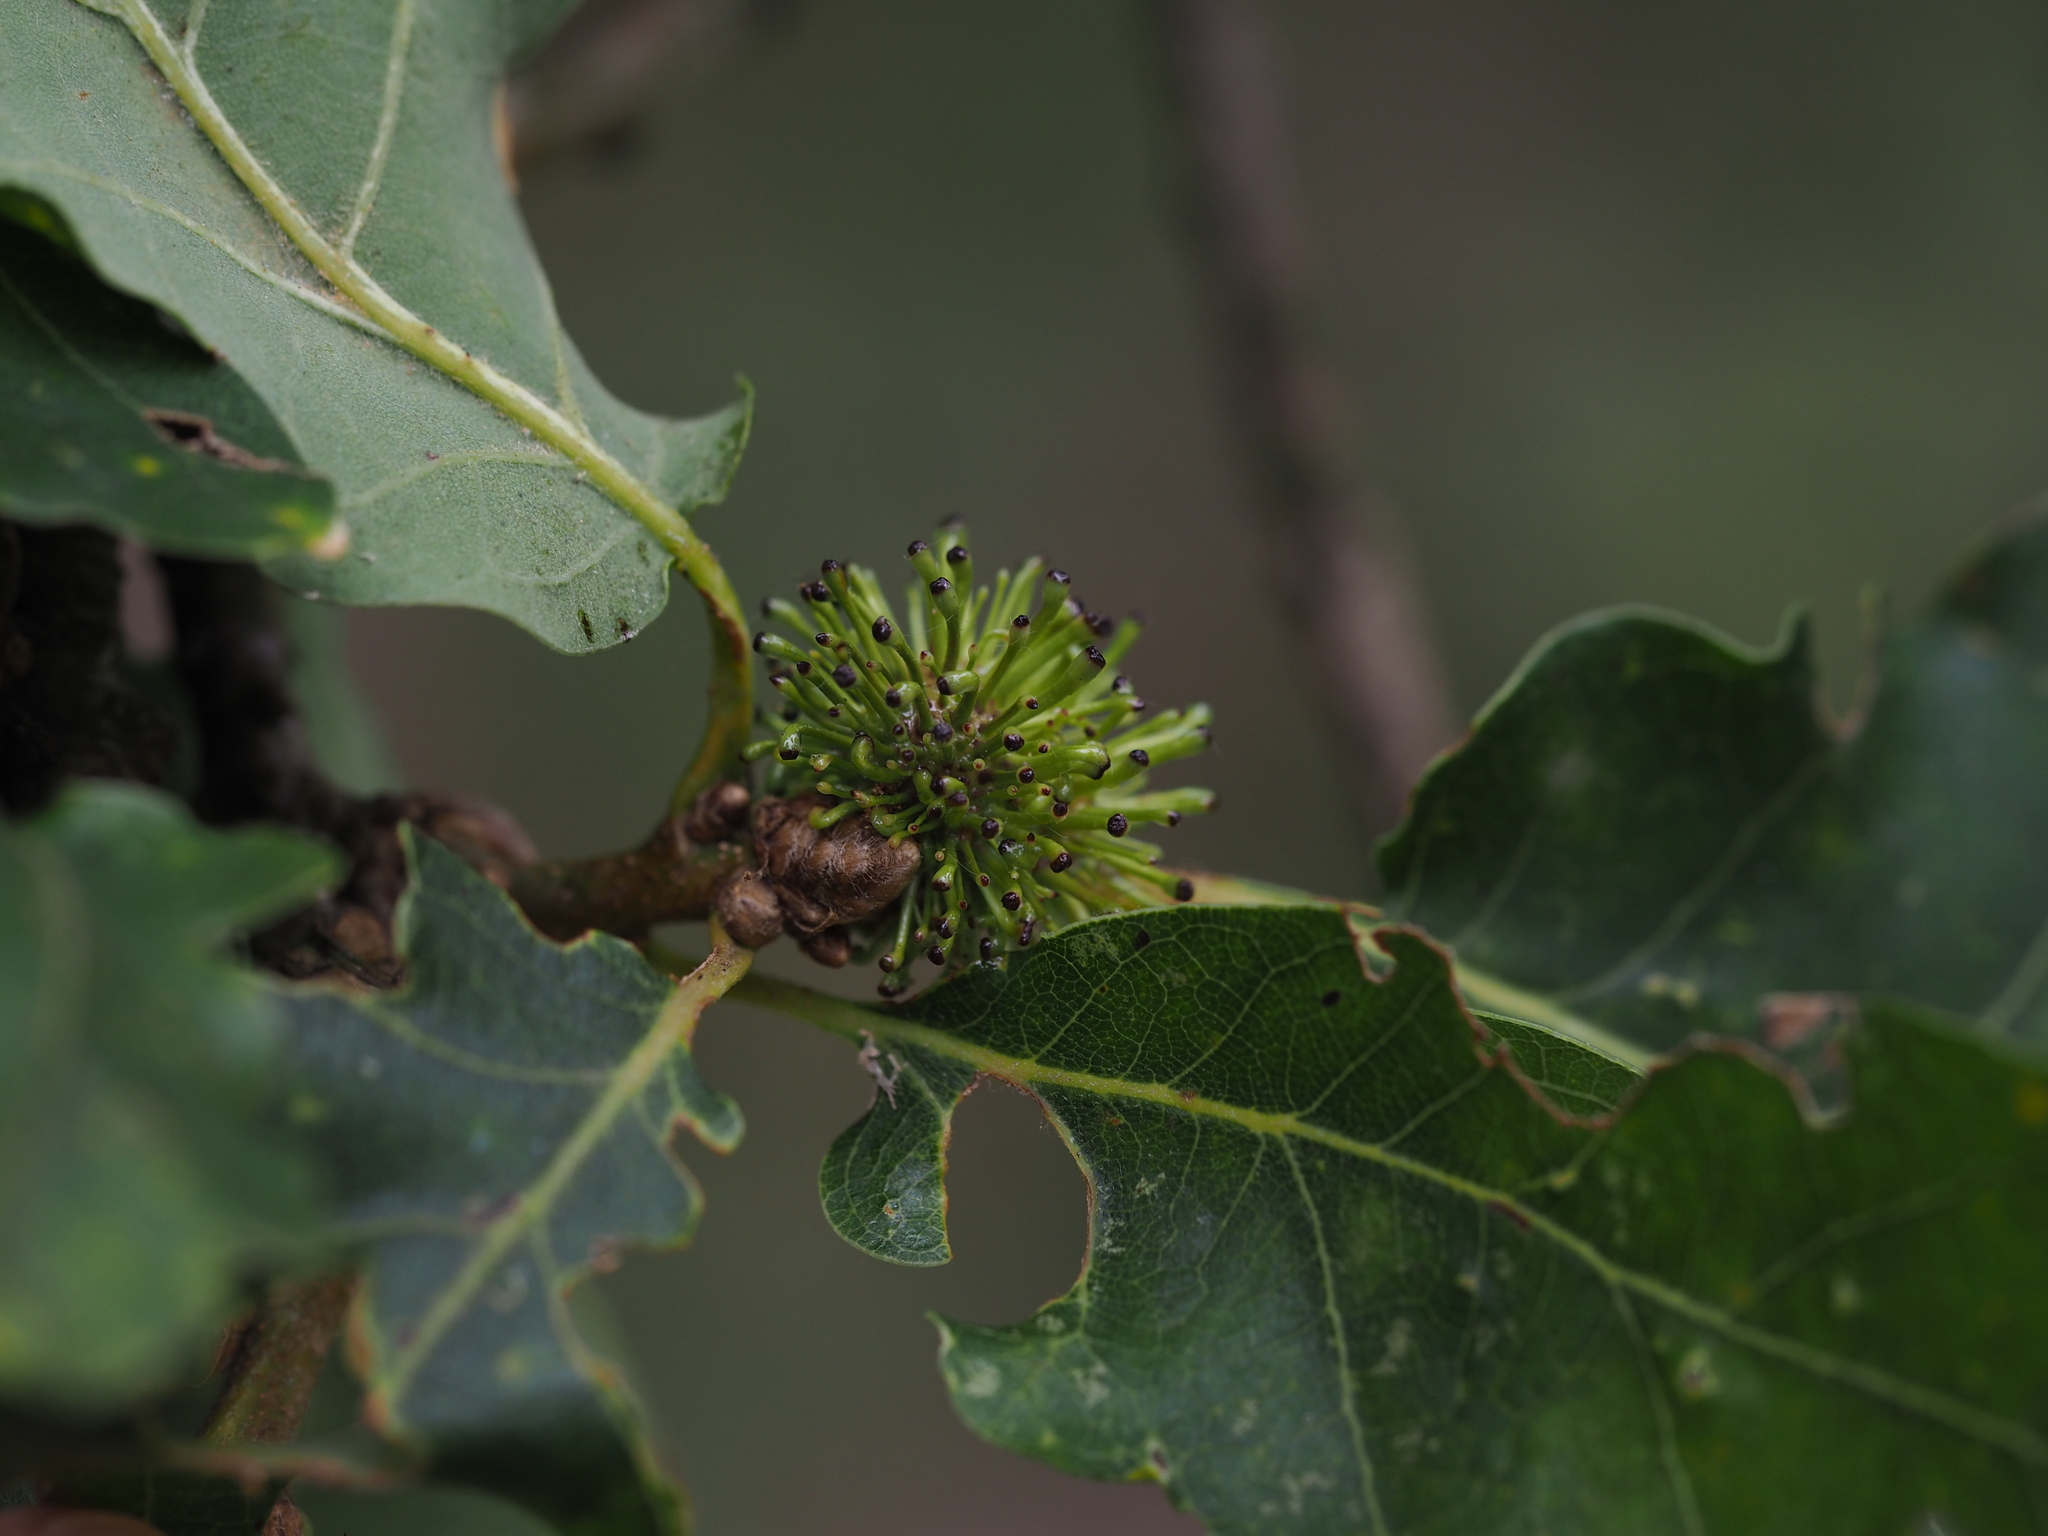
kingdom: Animalia
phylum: Arthropoda
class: Insecta
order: Hymenoptera
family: Cynipidae
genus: Andricus
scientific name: Andricus lucidus
